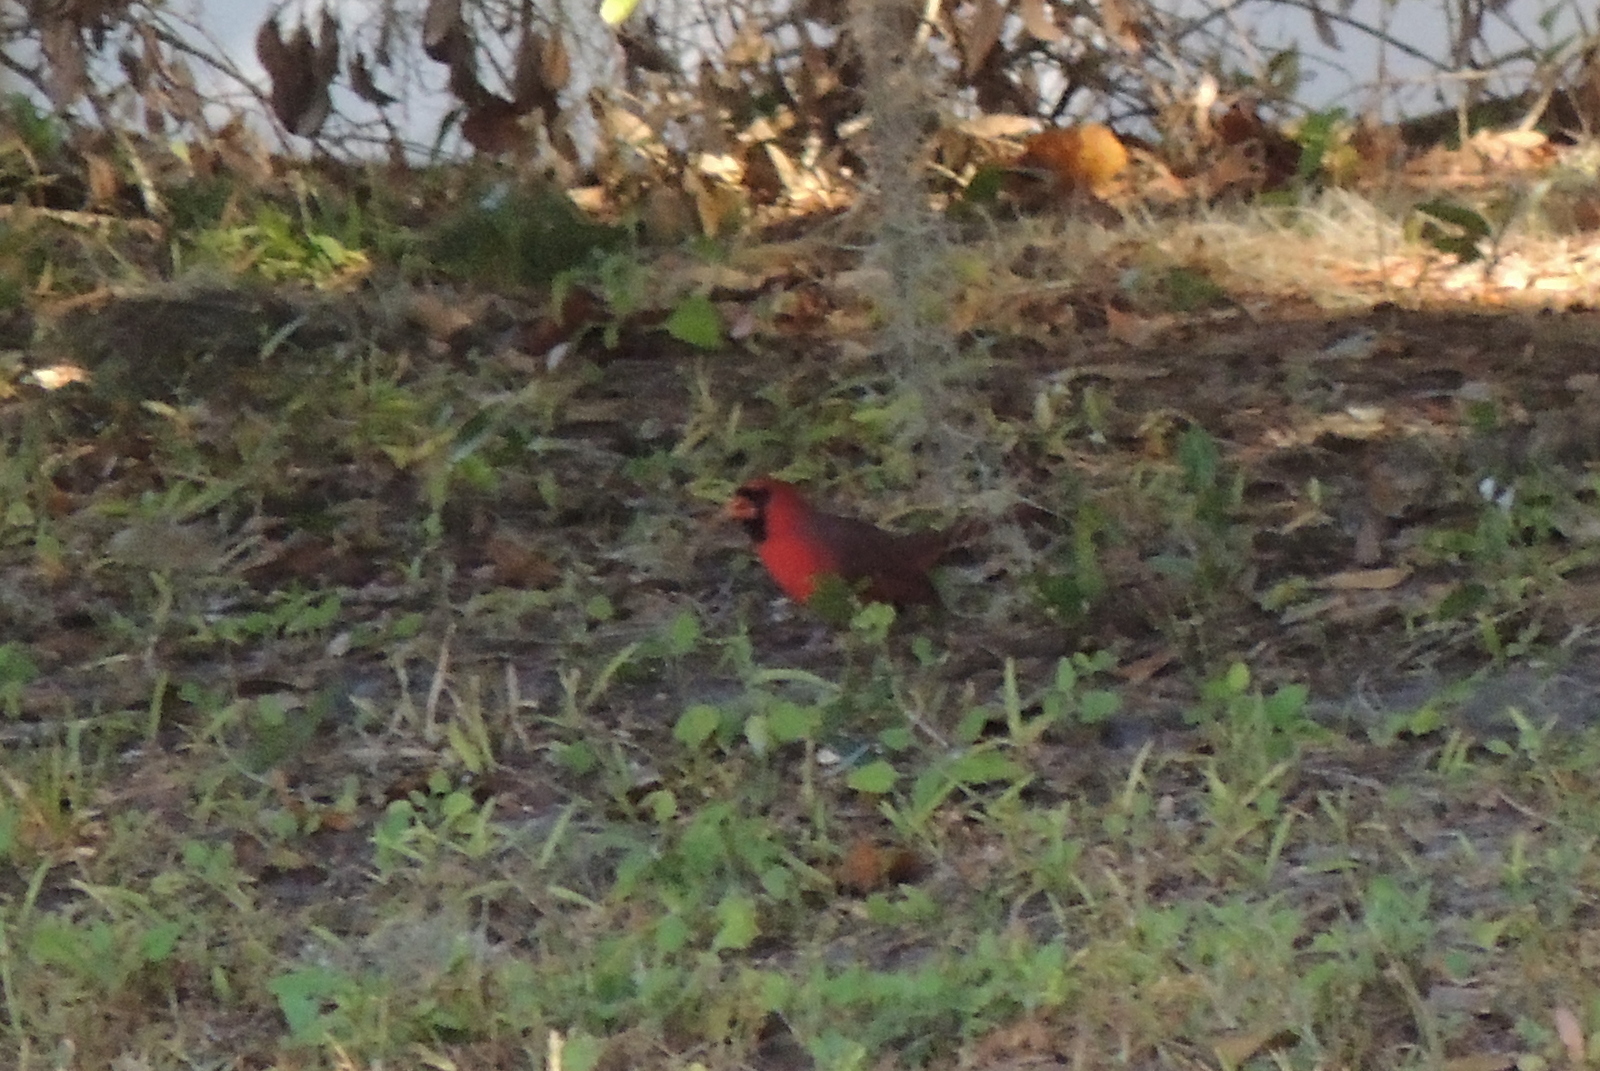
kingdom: Animalia
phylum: Chordata
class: Aves
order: Passeriformes
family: Cardinalidae
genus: Cardinalis
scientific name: Cardinalis cardinalis
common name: Northern cardinal
